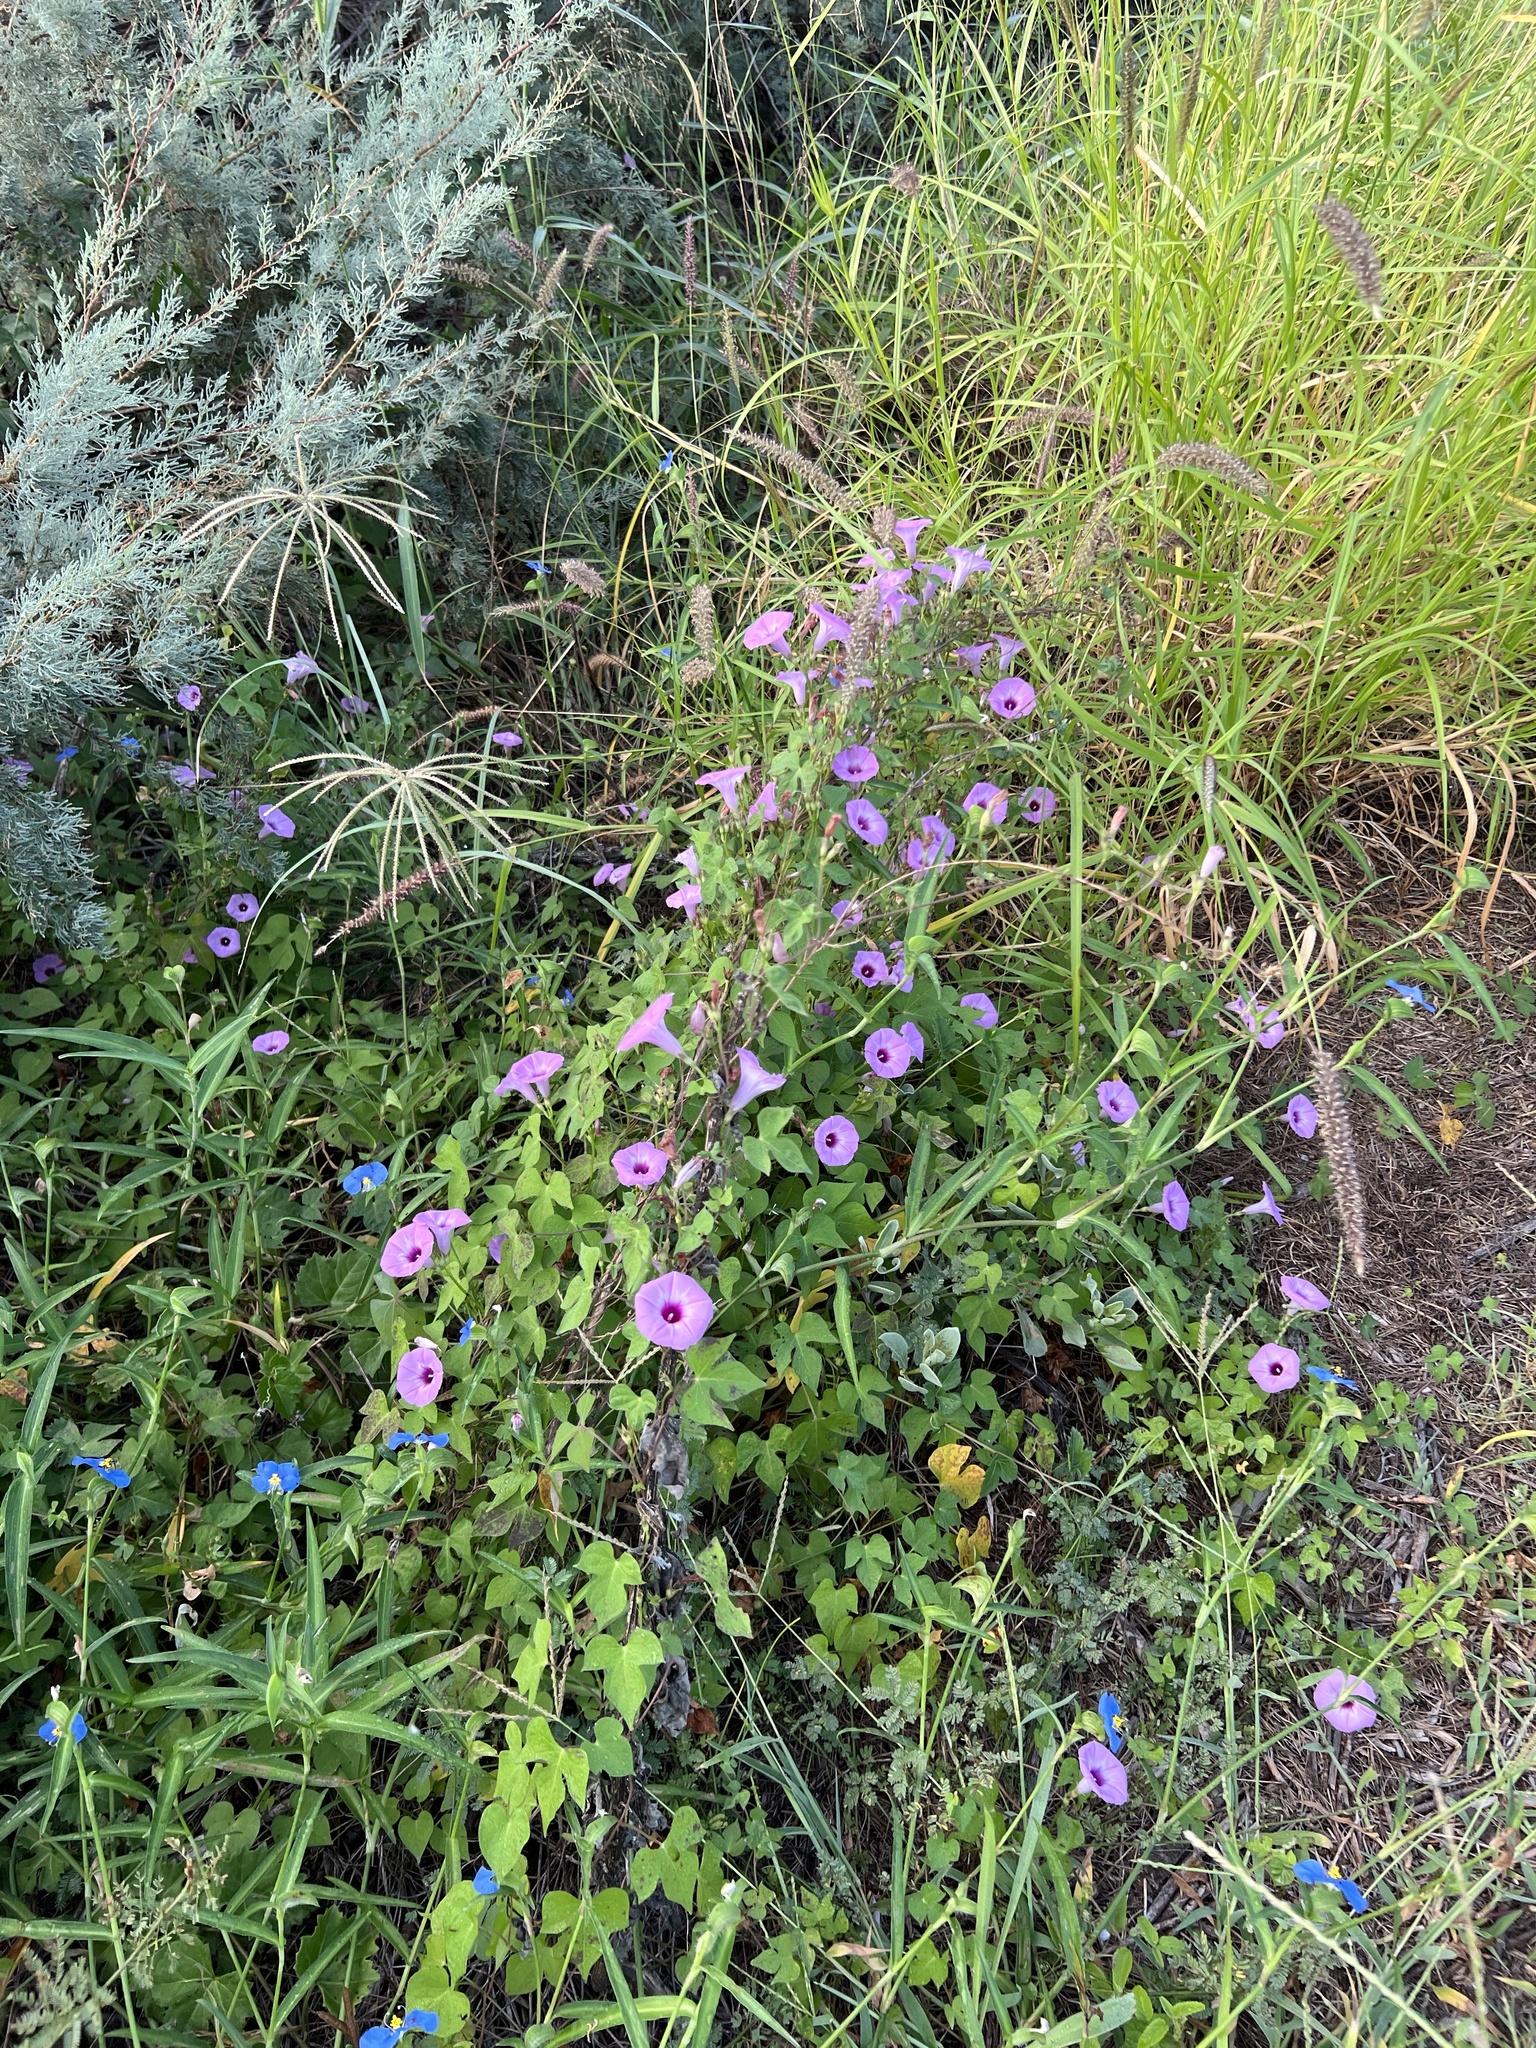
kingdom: Plantae
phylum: Tracheophyta
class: Magnoliopsida
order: Solanales
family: Convolvulaceae
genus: Ipomoea
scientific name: Ipomoea cordatotriloba
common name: Cotton morning glory
